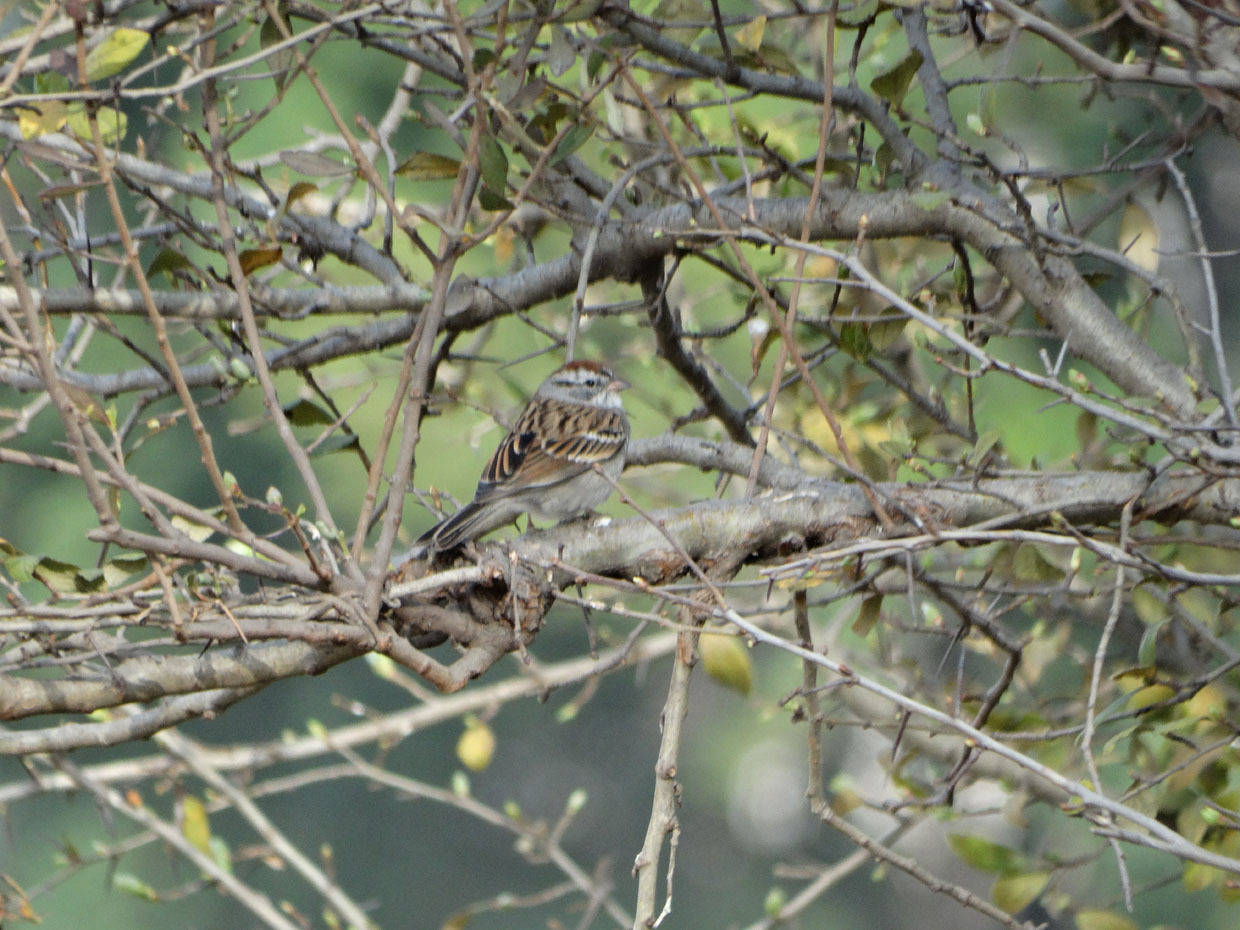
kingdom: Animalia
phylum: Chordata
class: Aves
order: Passeriformes
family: Passerellidae
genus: Spizella
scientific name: Spizella passerina
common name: Chipping sparrow
